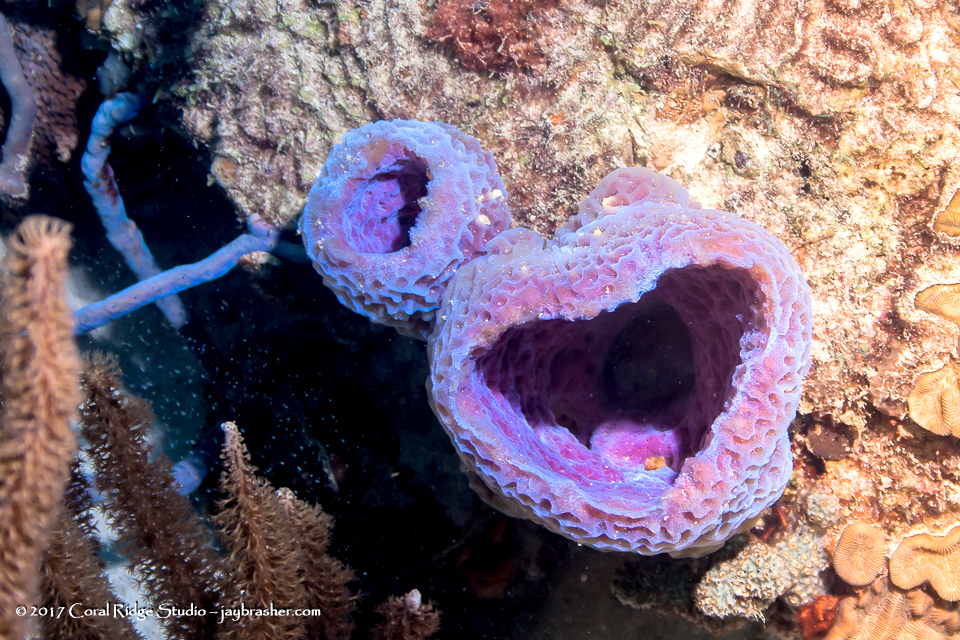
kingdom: Animalia
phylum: Porifera
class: Demospongiae
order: Haplosclerida
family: Callyspongiidae
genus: Callyspongia
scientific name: Callyspongia plicifera
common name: Azure vase sponge
